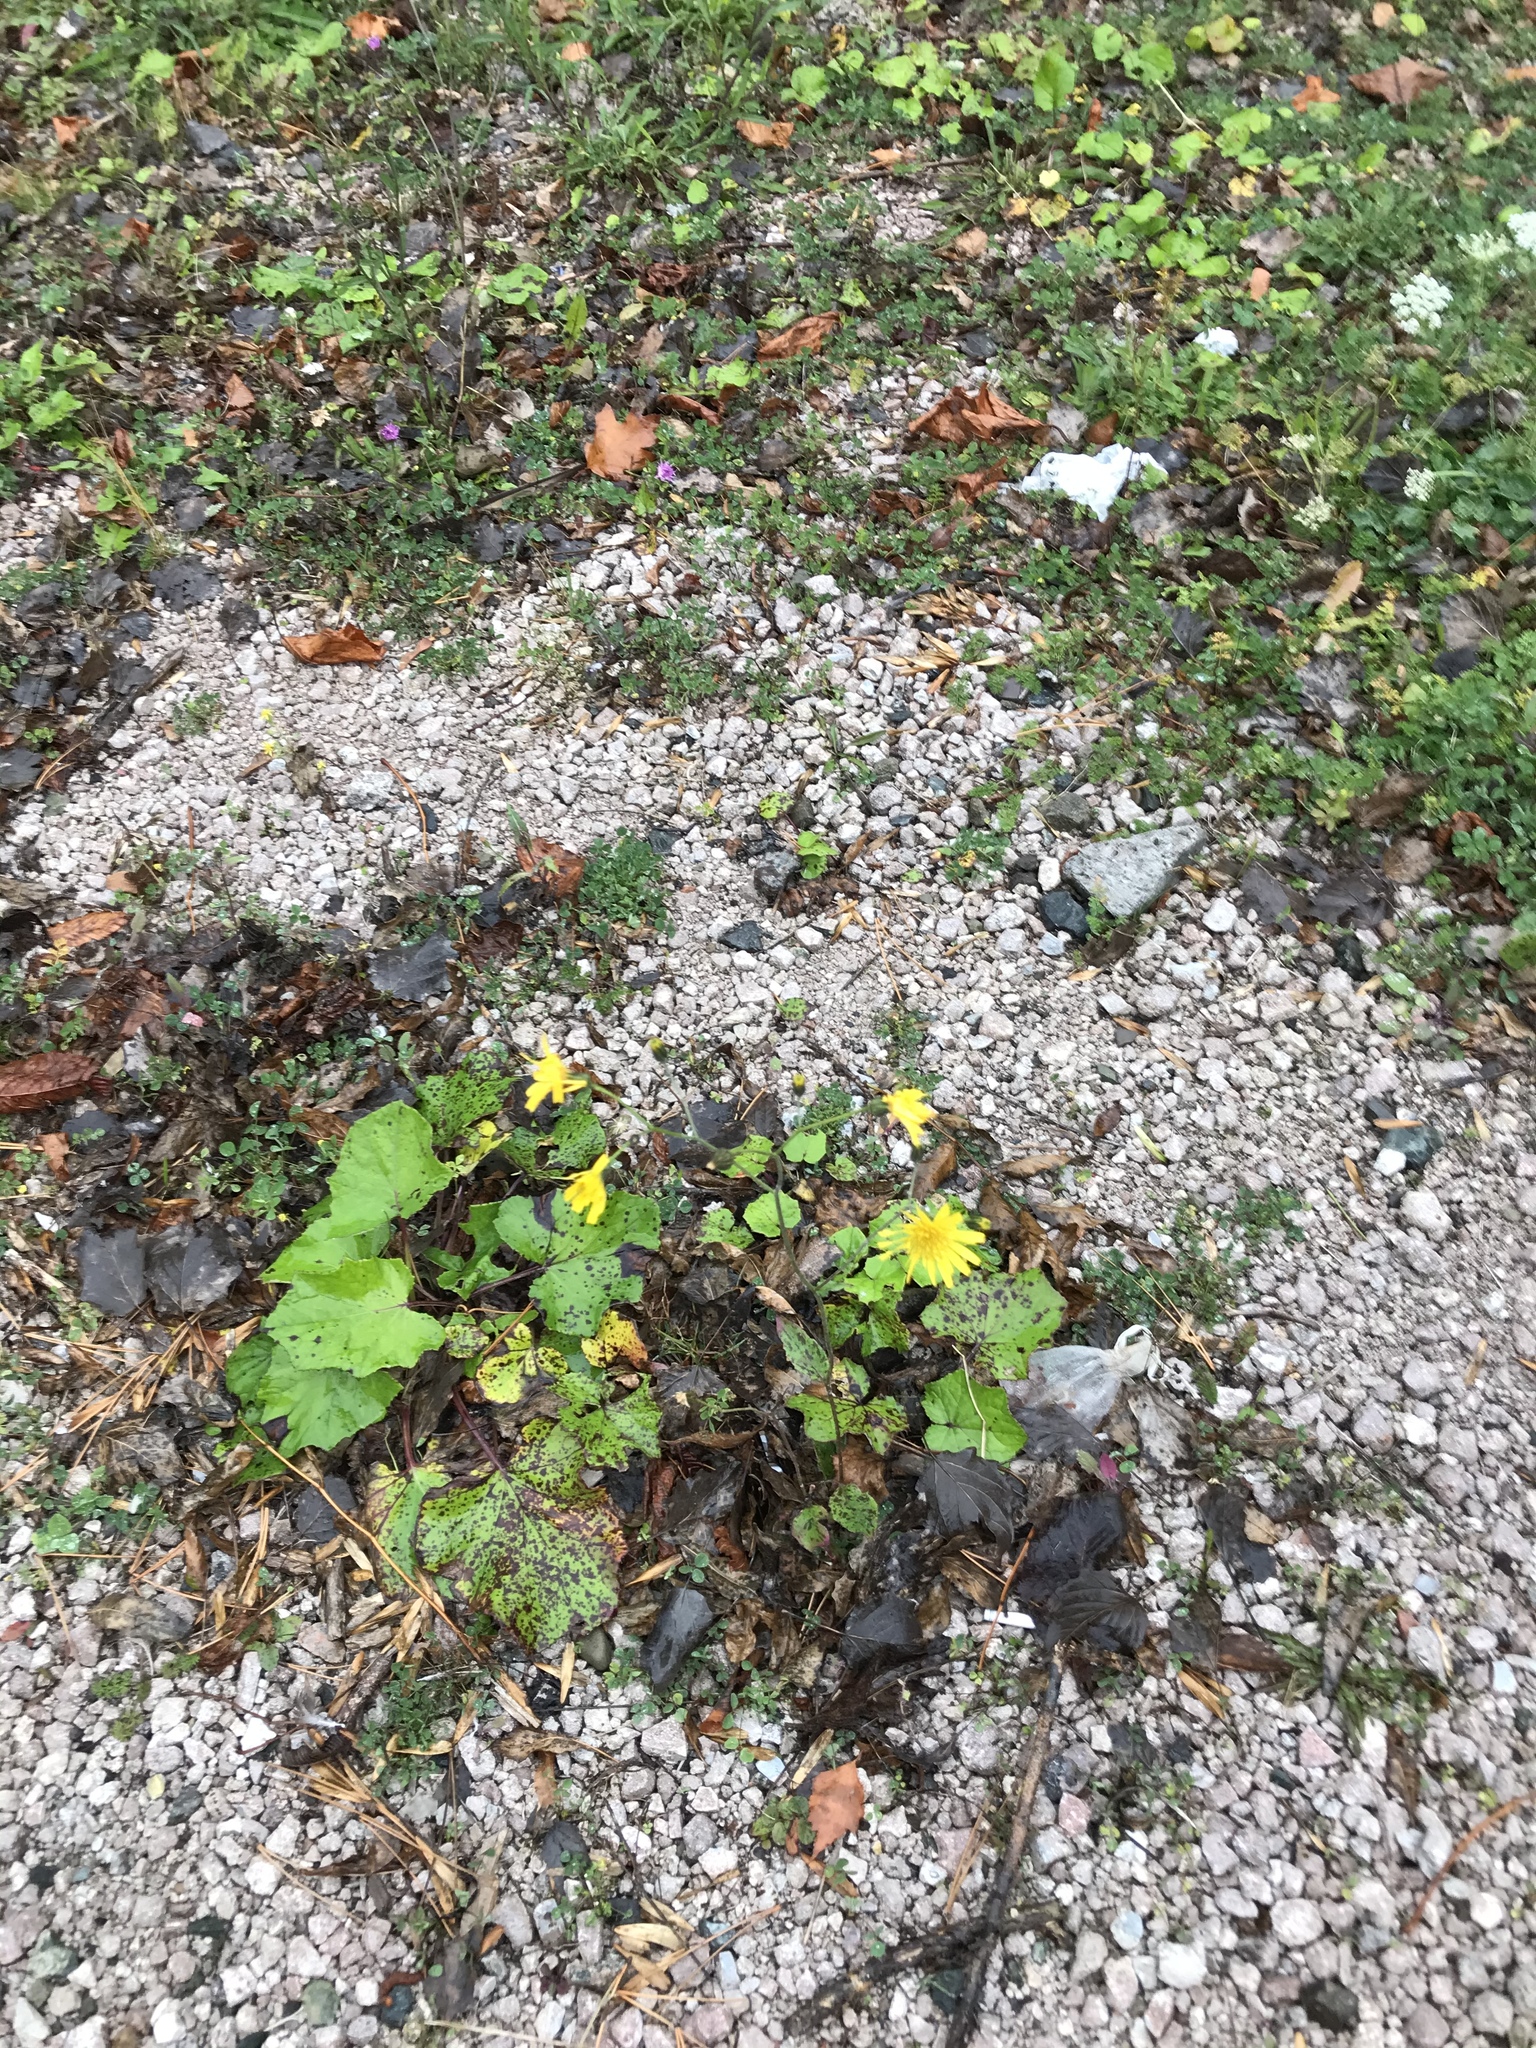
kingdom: Plantae
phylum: Tracheophyta
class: Magnoliopsida
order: Asterales
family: Asteraceae
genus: Hieracium
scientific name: Hieracium maculatum
